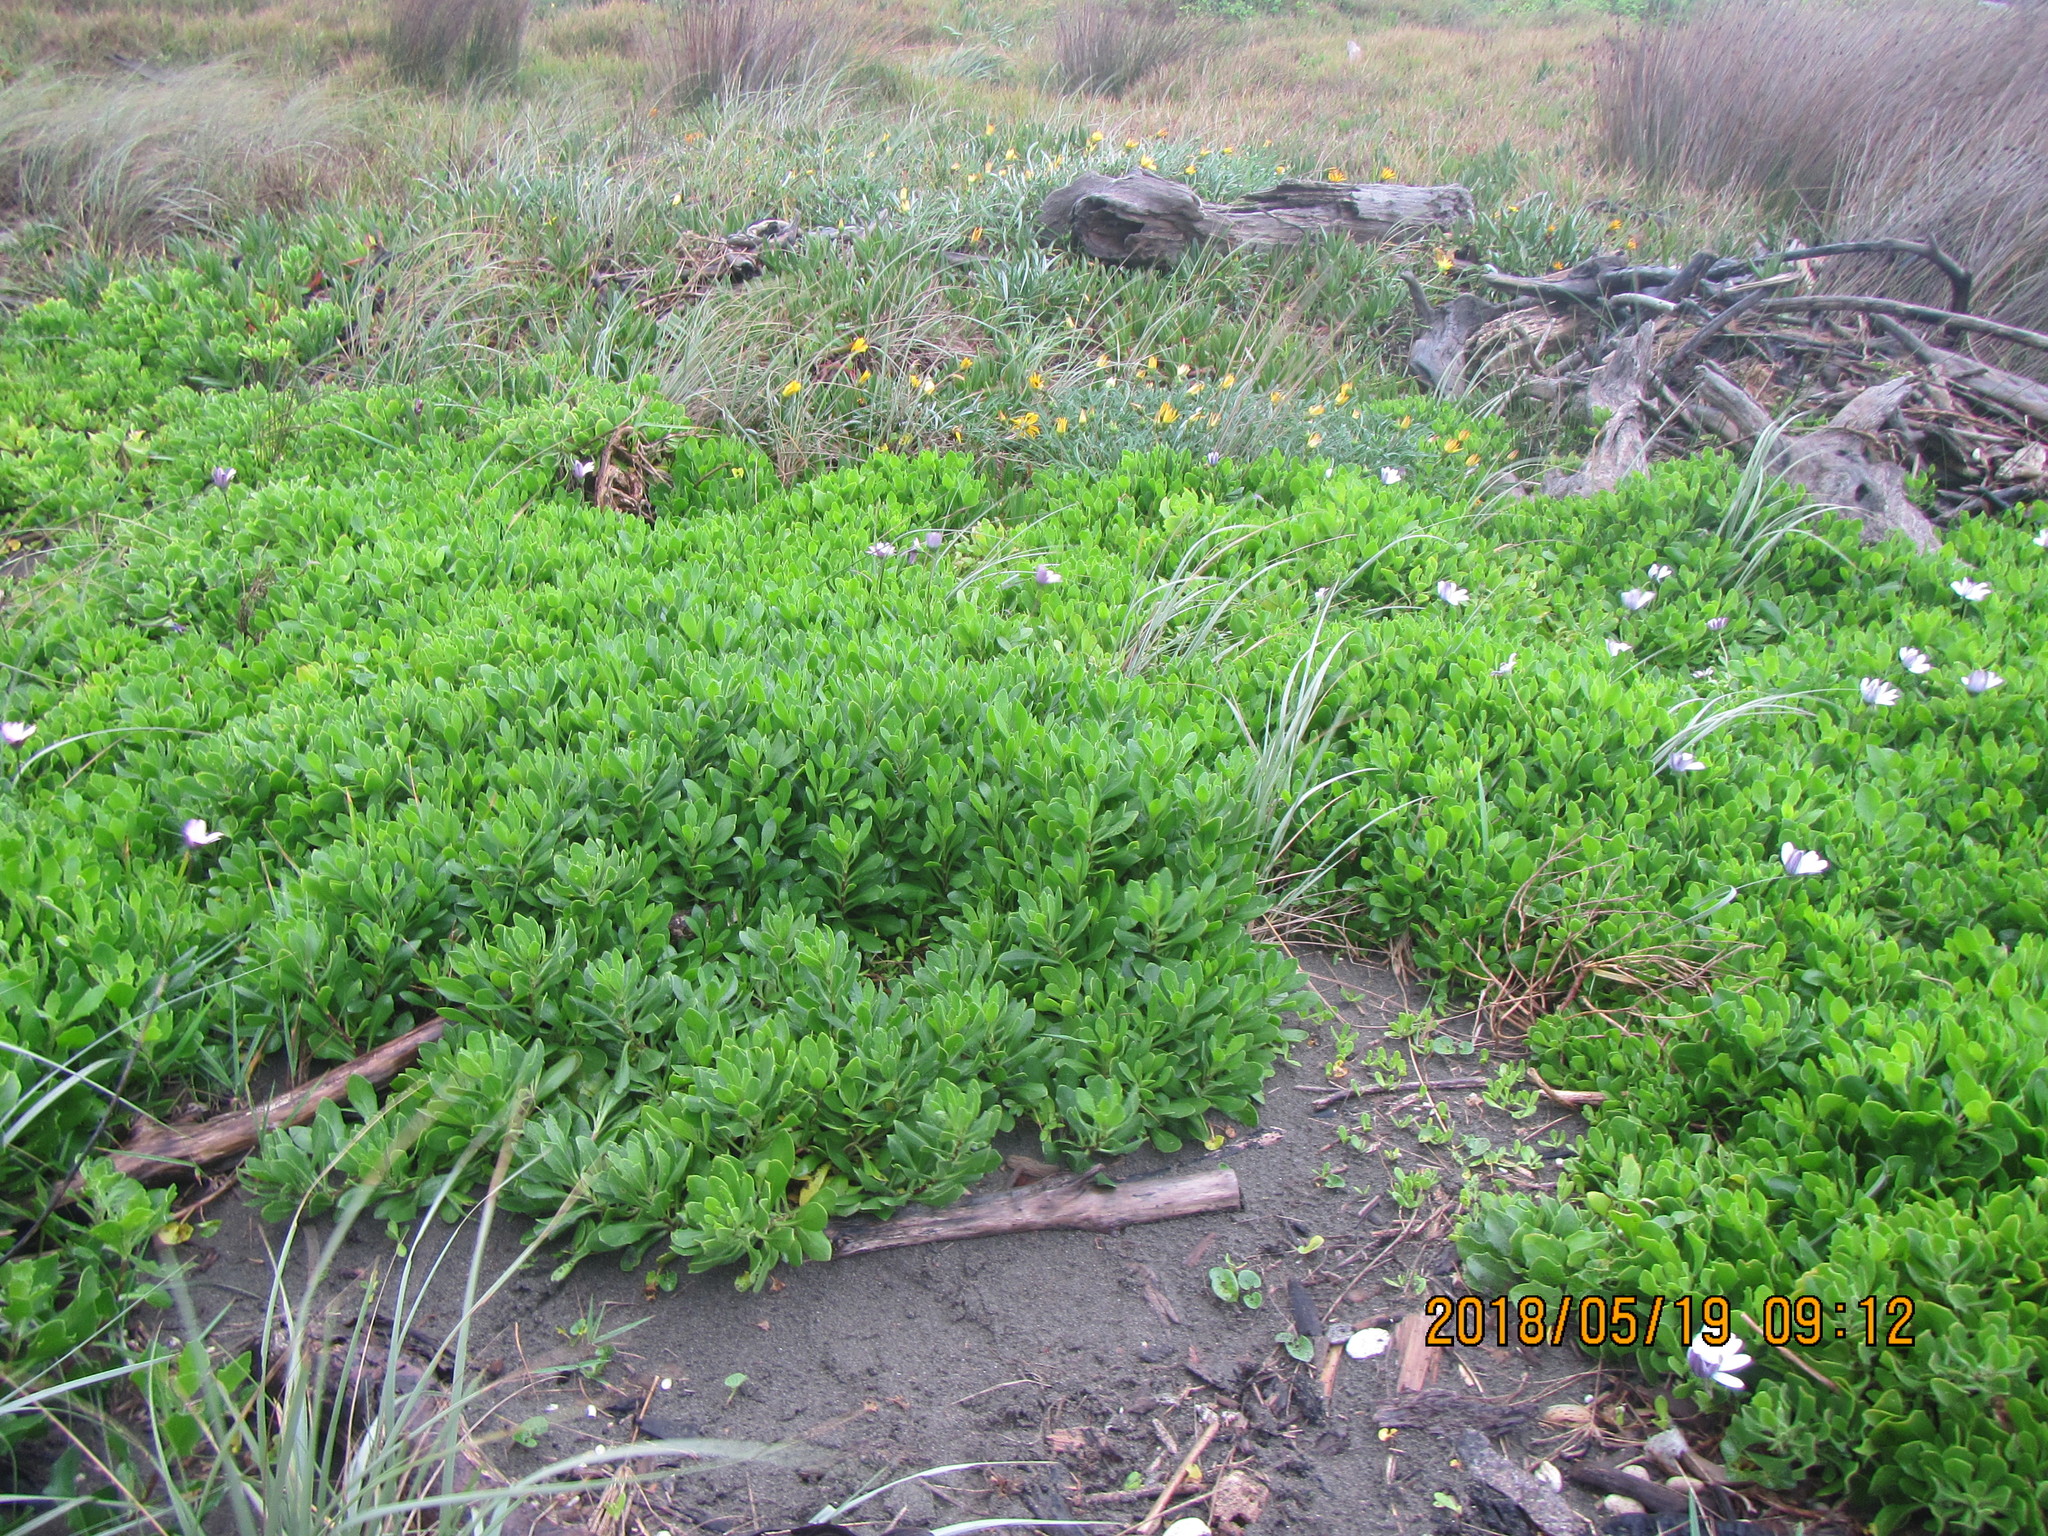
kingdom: Plantae
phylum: Tracheophyta
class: Magnoliopsida
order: Asterales
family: Asteraceae
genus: Dimorphotheca
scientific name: Dimorphotheca fruticosa
